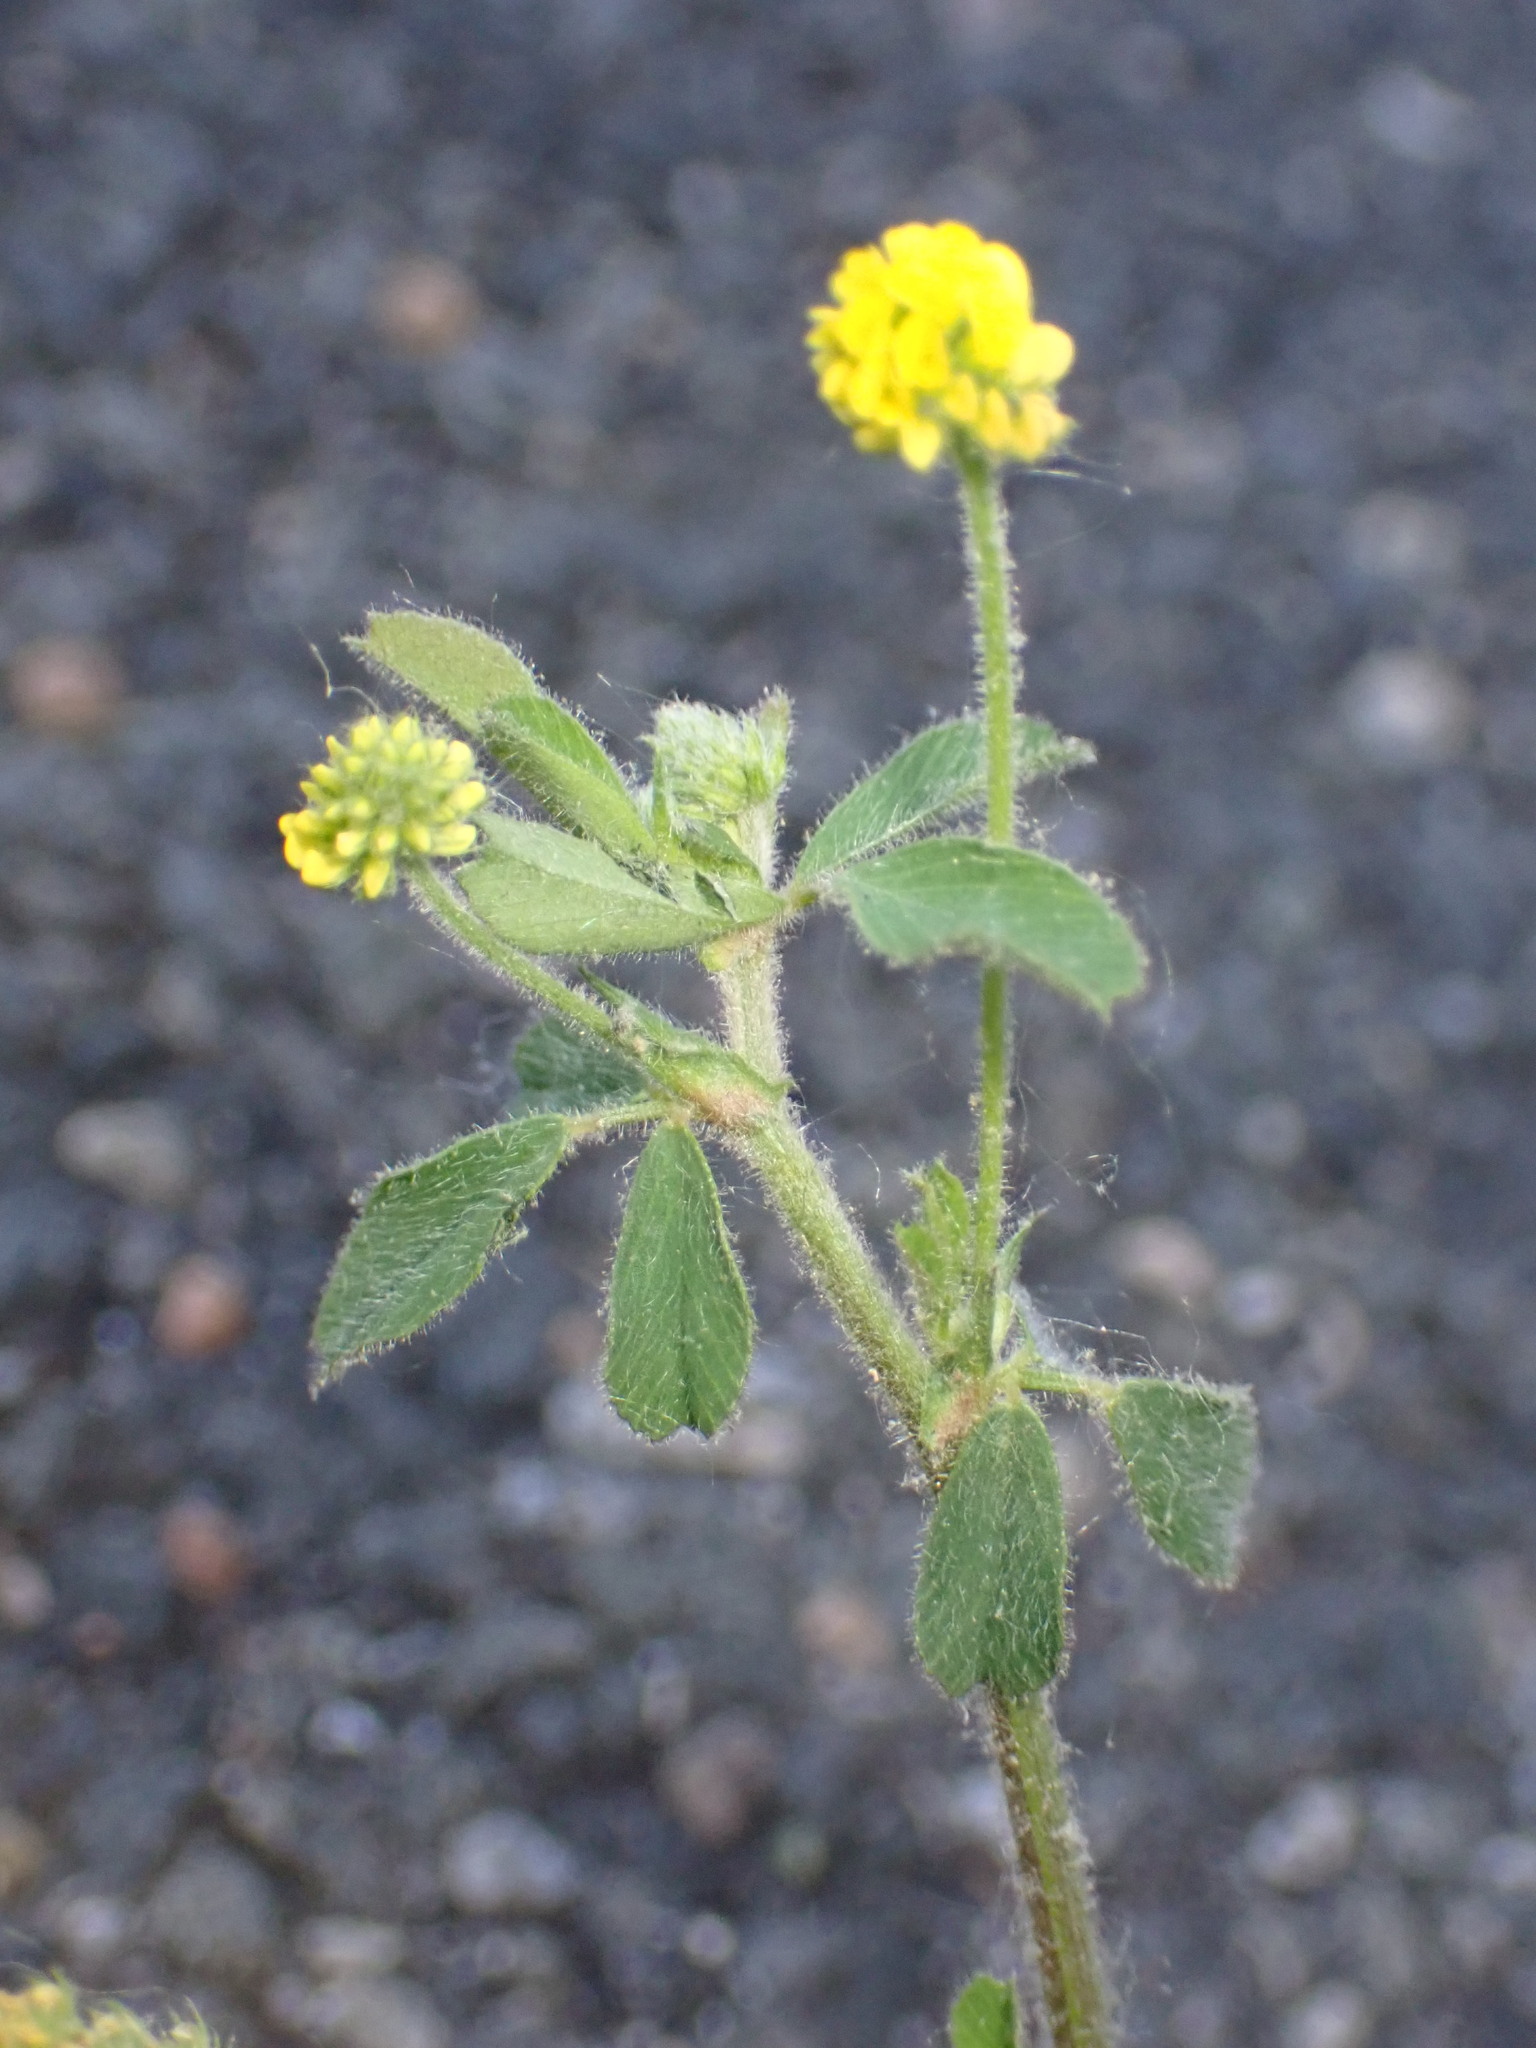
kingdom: Plantae
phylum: Tracheophyta
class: Magnoliopsida
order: Fabales
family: Fabaceae
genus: Medicago
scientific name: Medicago lupulina
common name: Black medick
